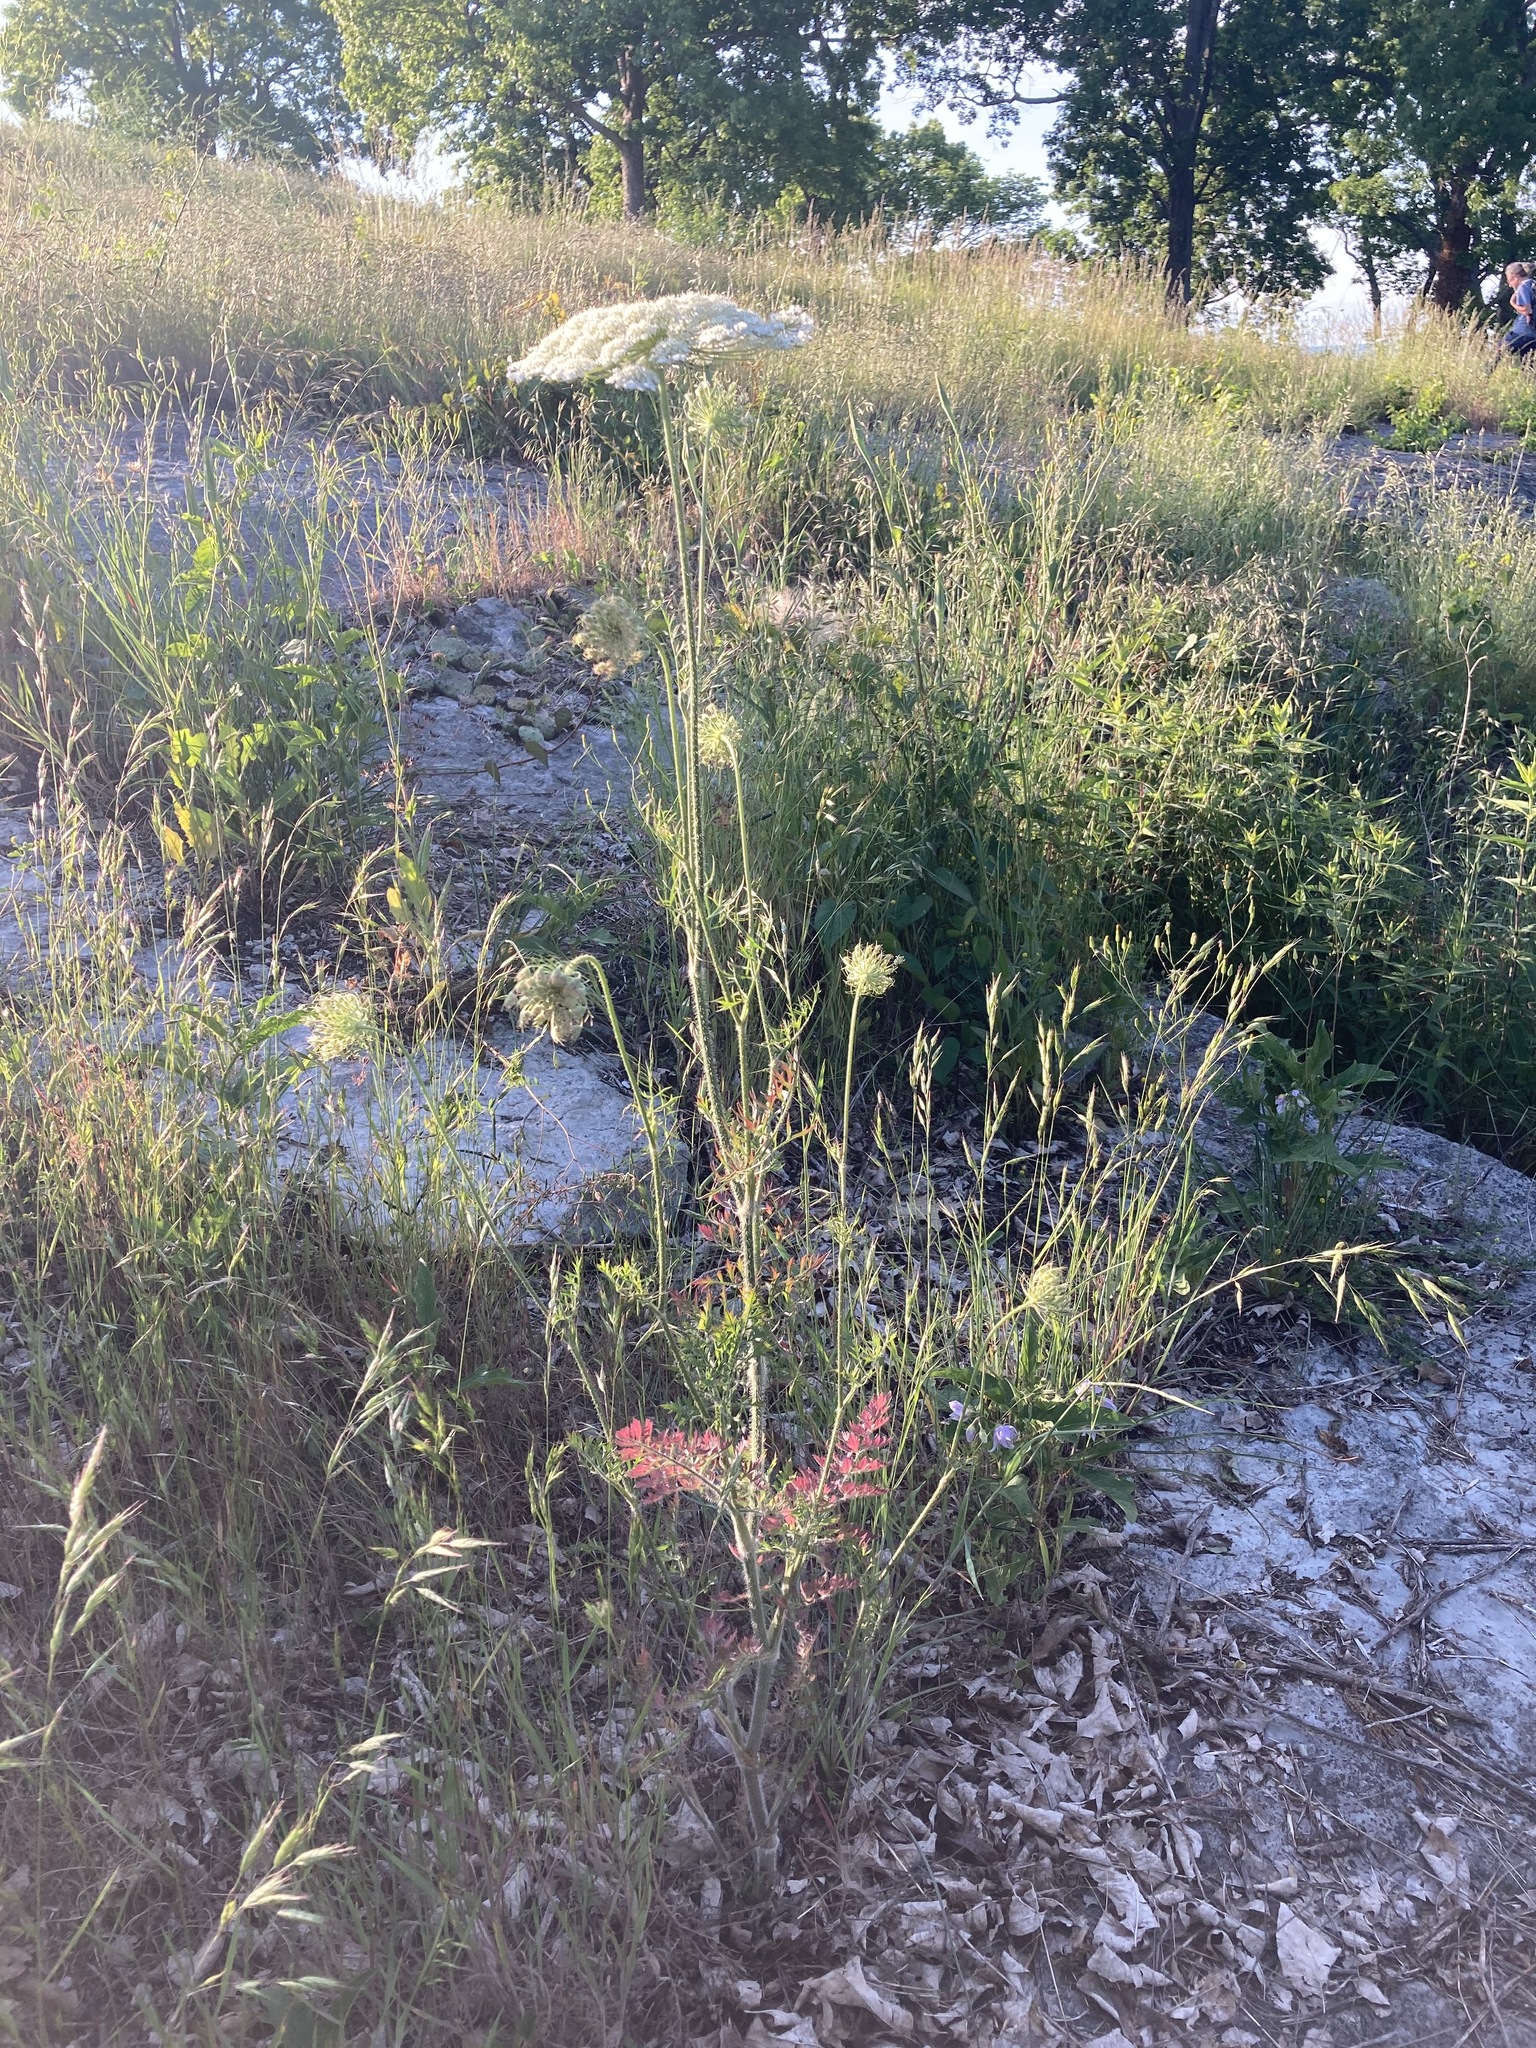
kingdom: Plantae
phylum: Tracheophyta
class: Magnoliopsida
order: Apiales
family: Apiaceae
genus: Daucus
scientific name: Daucus carota
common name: Wild carrot
